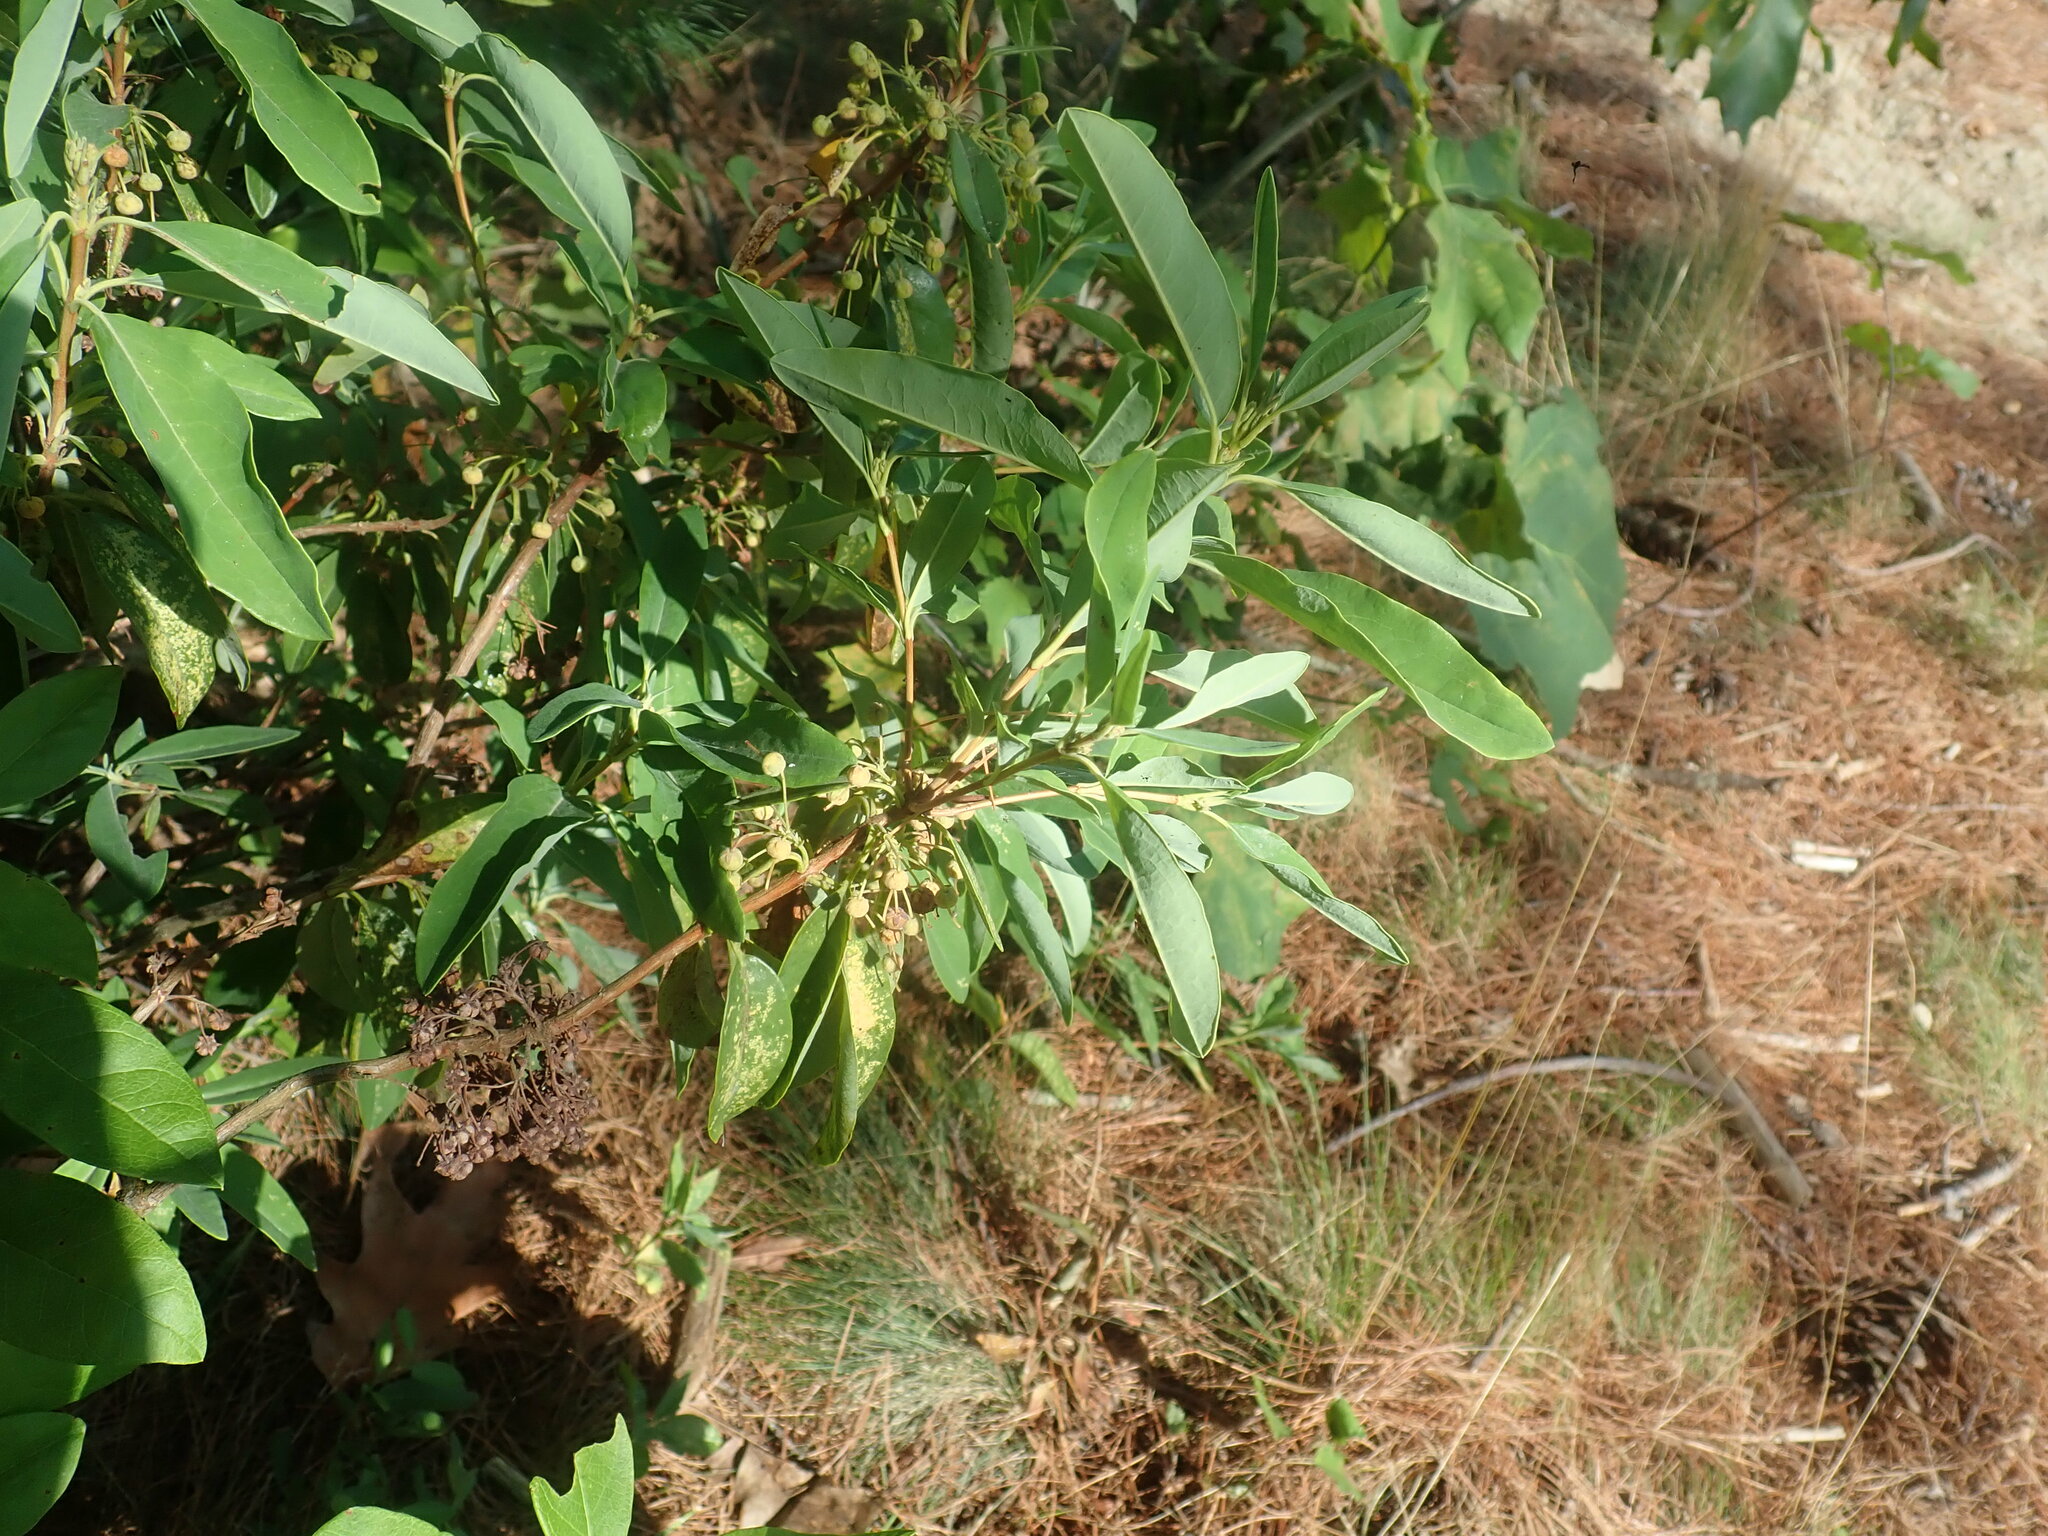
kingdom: Plantae
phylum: Tracheophyta
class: Magnoliopsida
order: Ericales
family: Ericaceae
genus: Kalmia
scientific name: Kalmia angustifolia
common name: Sheep-laurel
